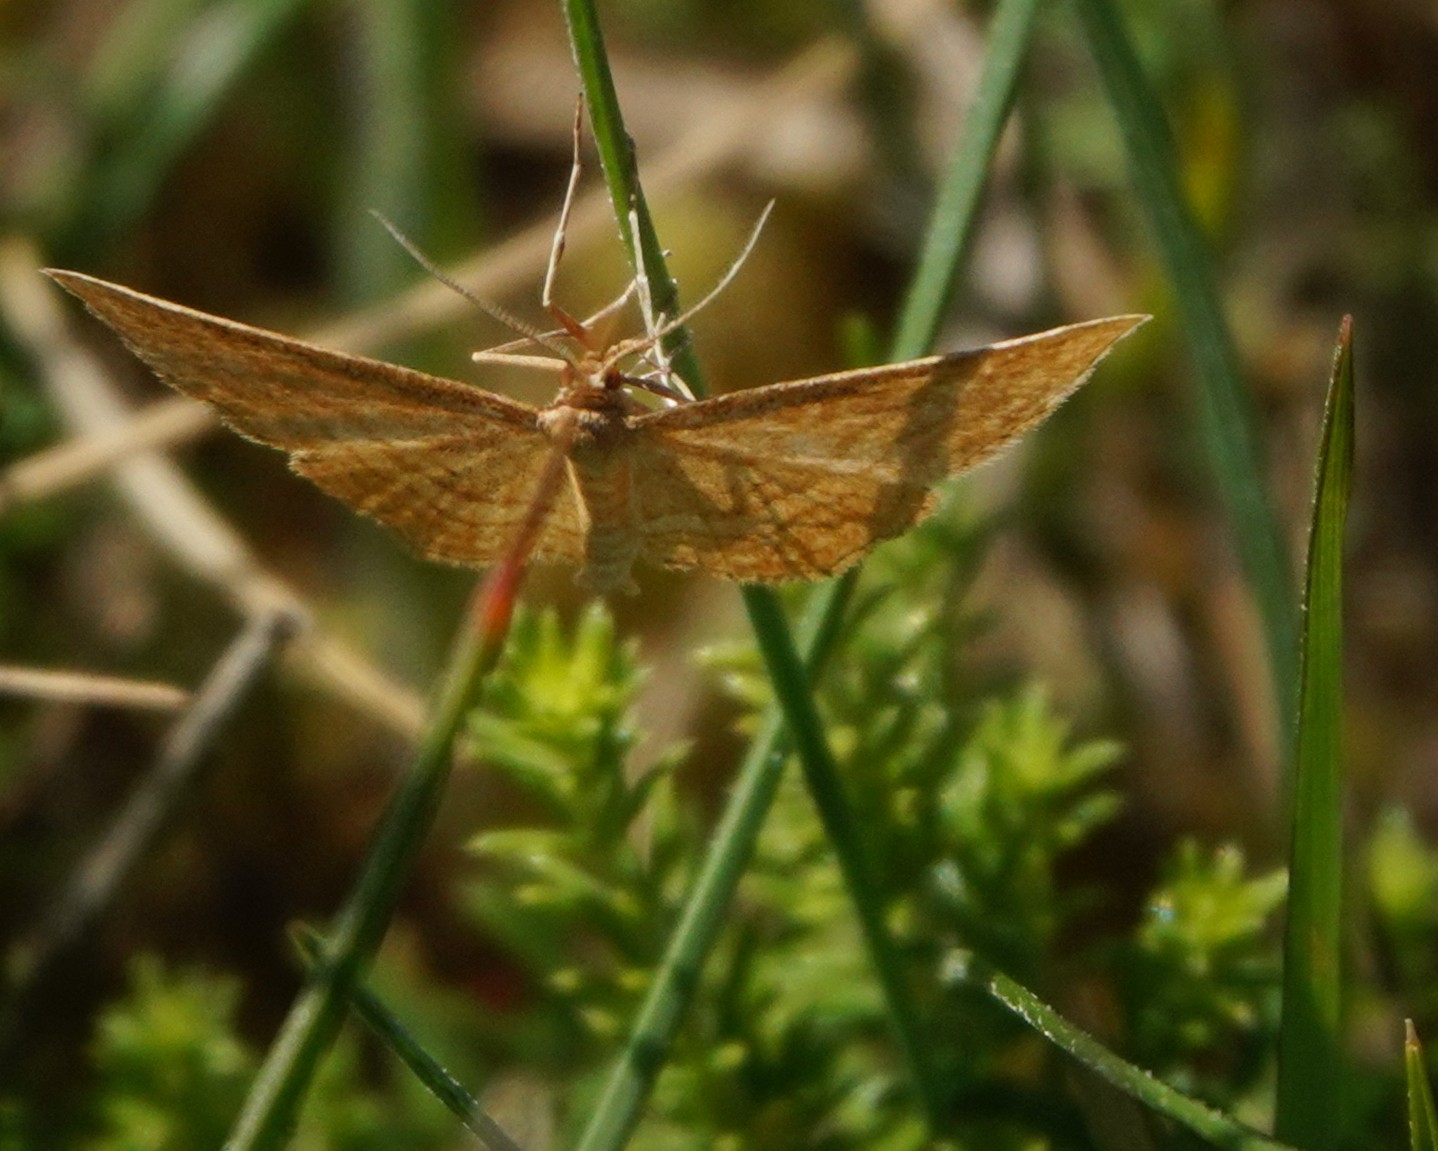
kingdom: Animalia
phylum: Arthropoda
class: Insecta
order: Lepidoptera
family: Geometridae
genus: Idaea
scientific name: Idaea ochrata
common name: Bright wave
